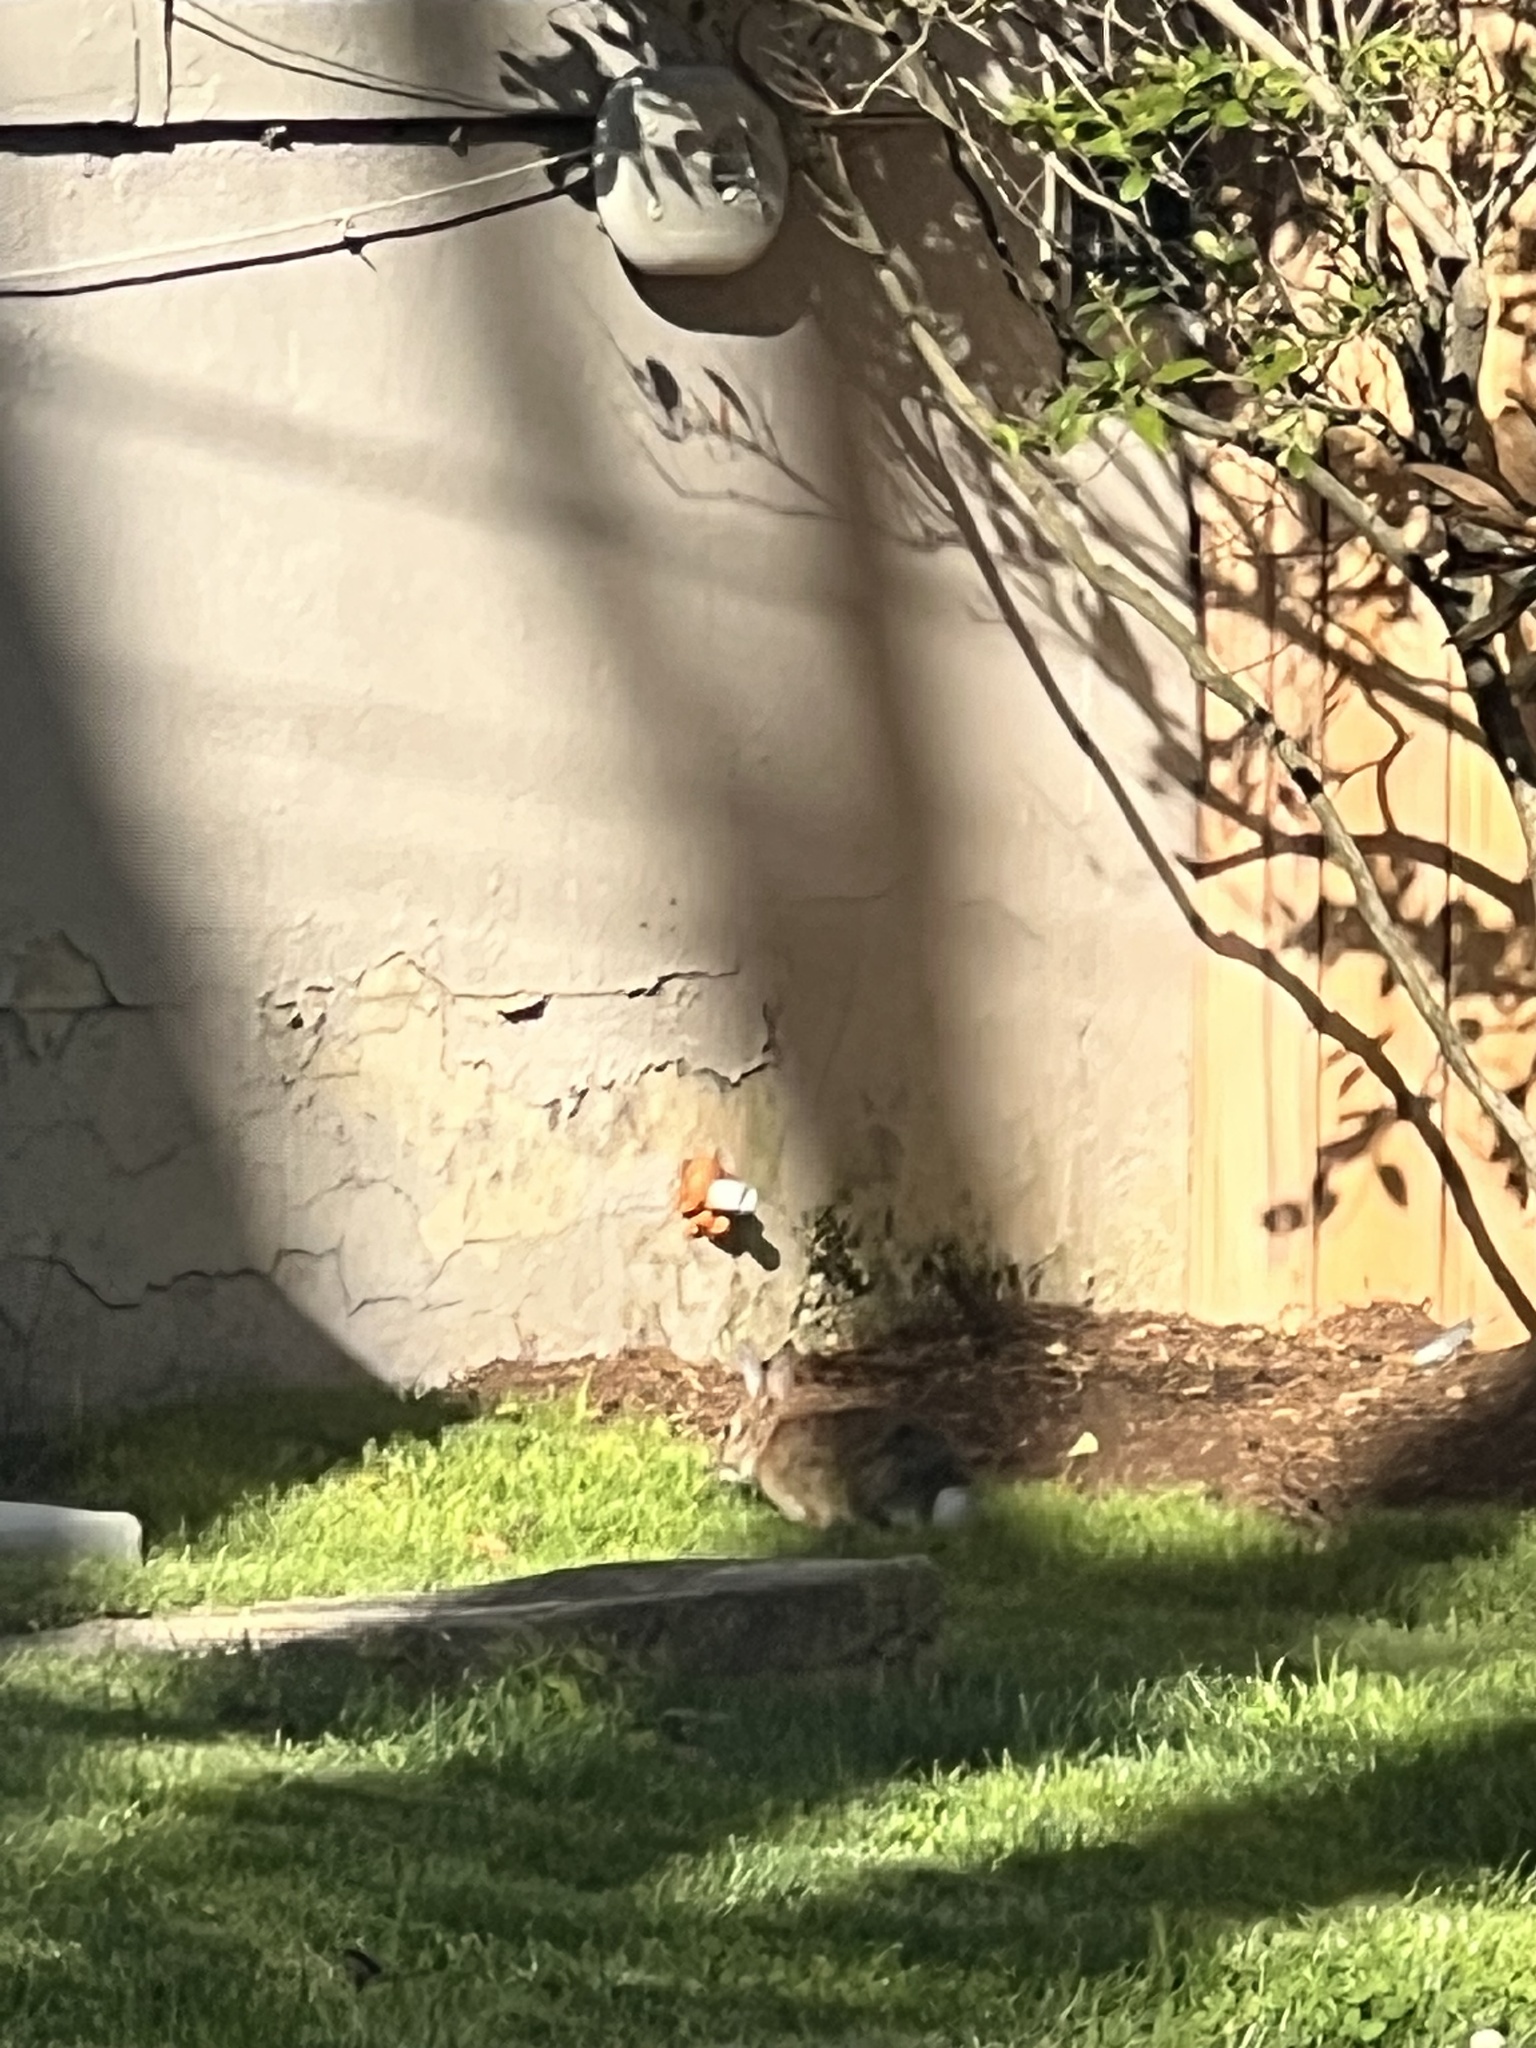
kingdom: Animalia
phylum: Chordata
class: Mammalia
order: Lagomorpha
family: Leporidae
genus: Sylvilagus
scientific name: Sylvilagus floridanus
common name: Eastern cottontail
